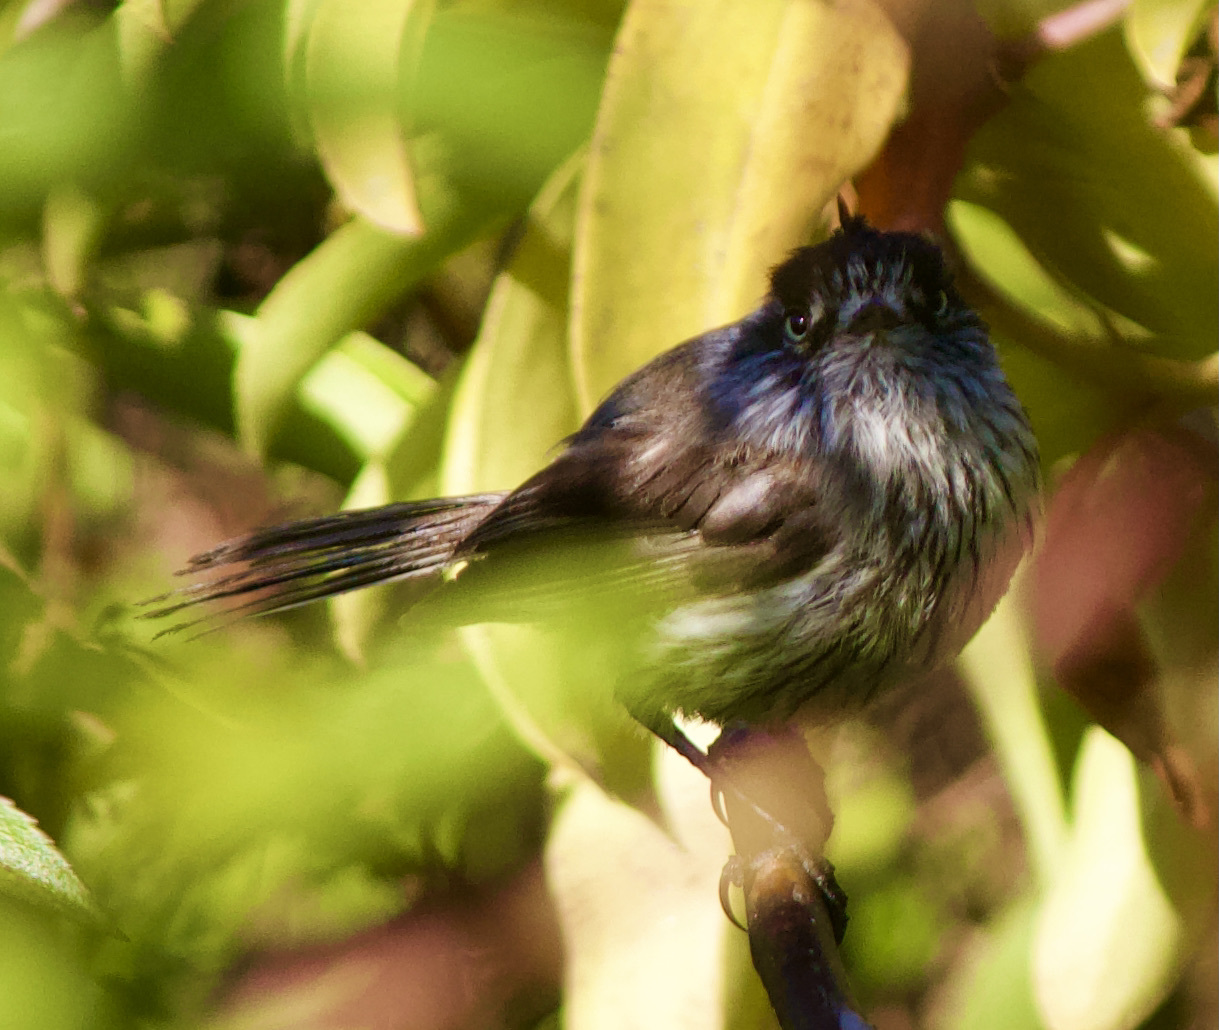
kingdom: Animalia
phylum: Chordata
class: Aves
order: Passeriformes
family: Tyrannidae
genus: Anairetes
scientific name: Anairetes parulus
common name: Tufted tit-tyrant
